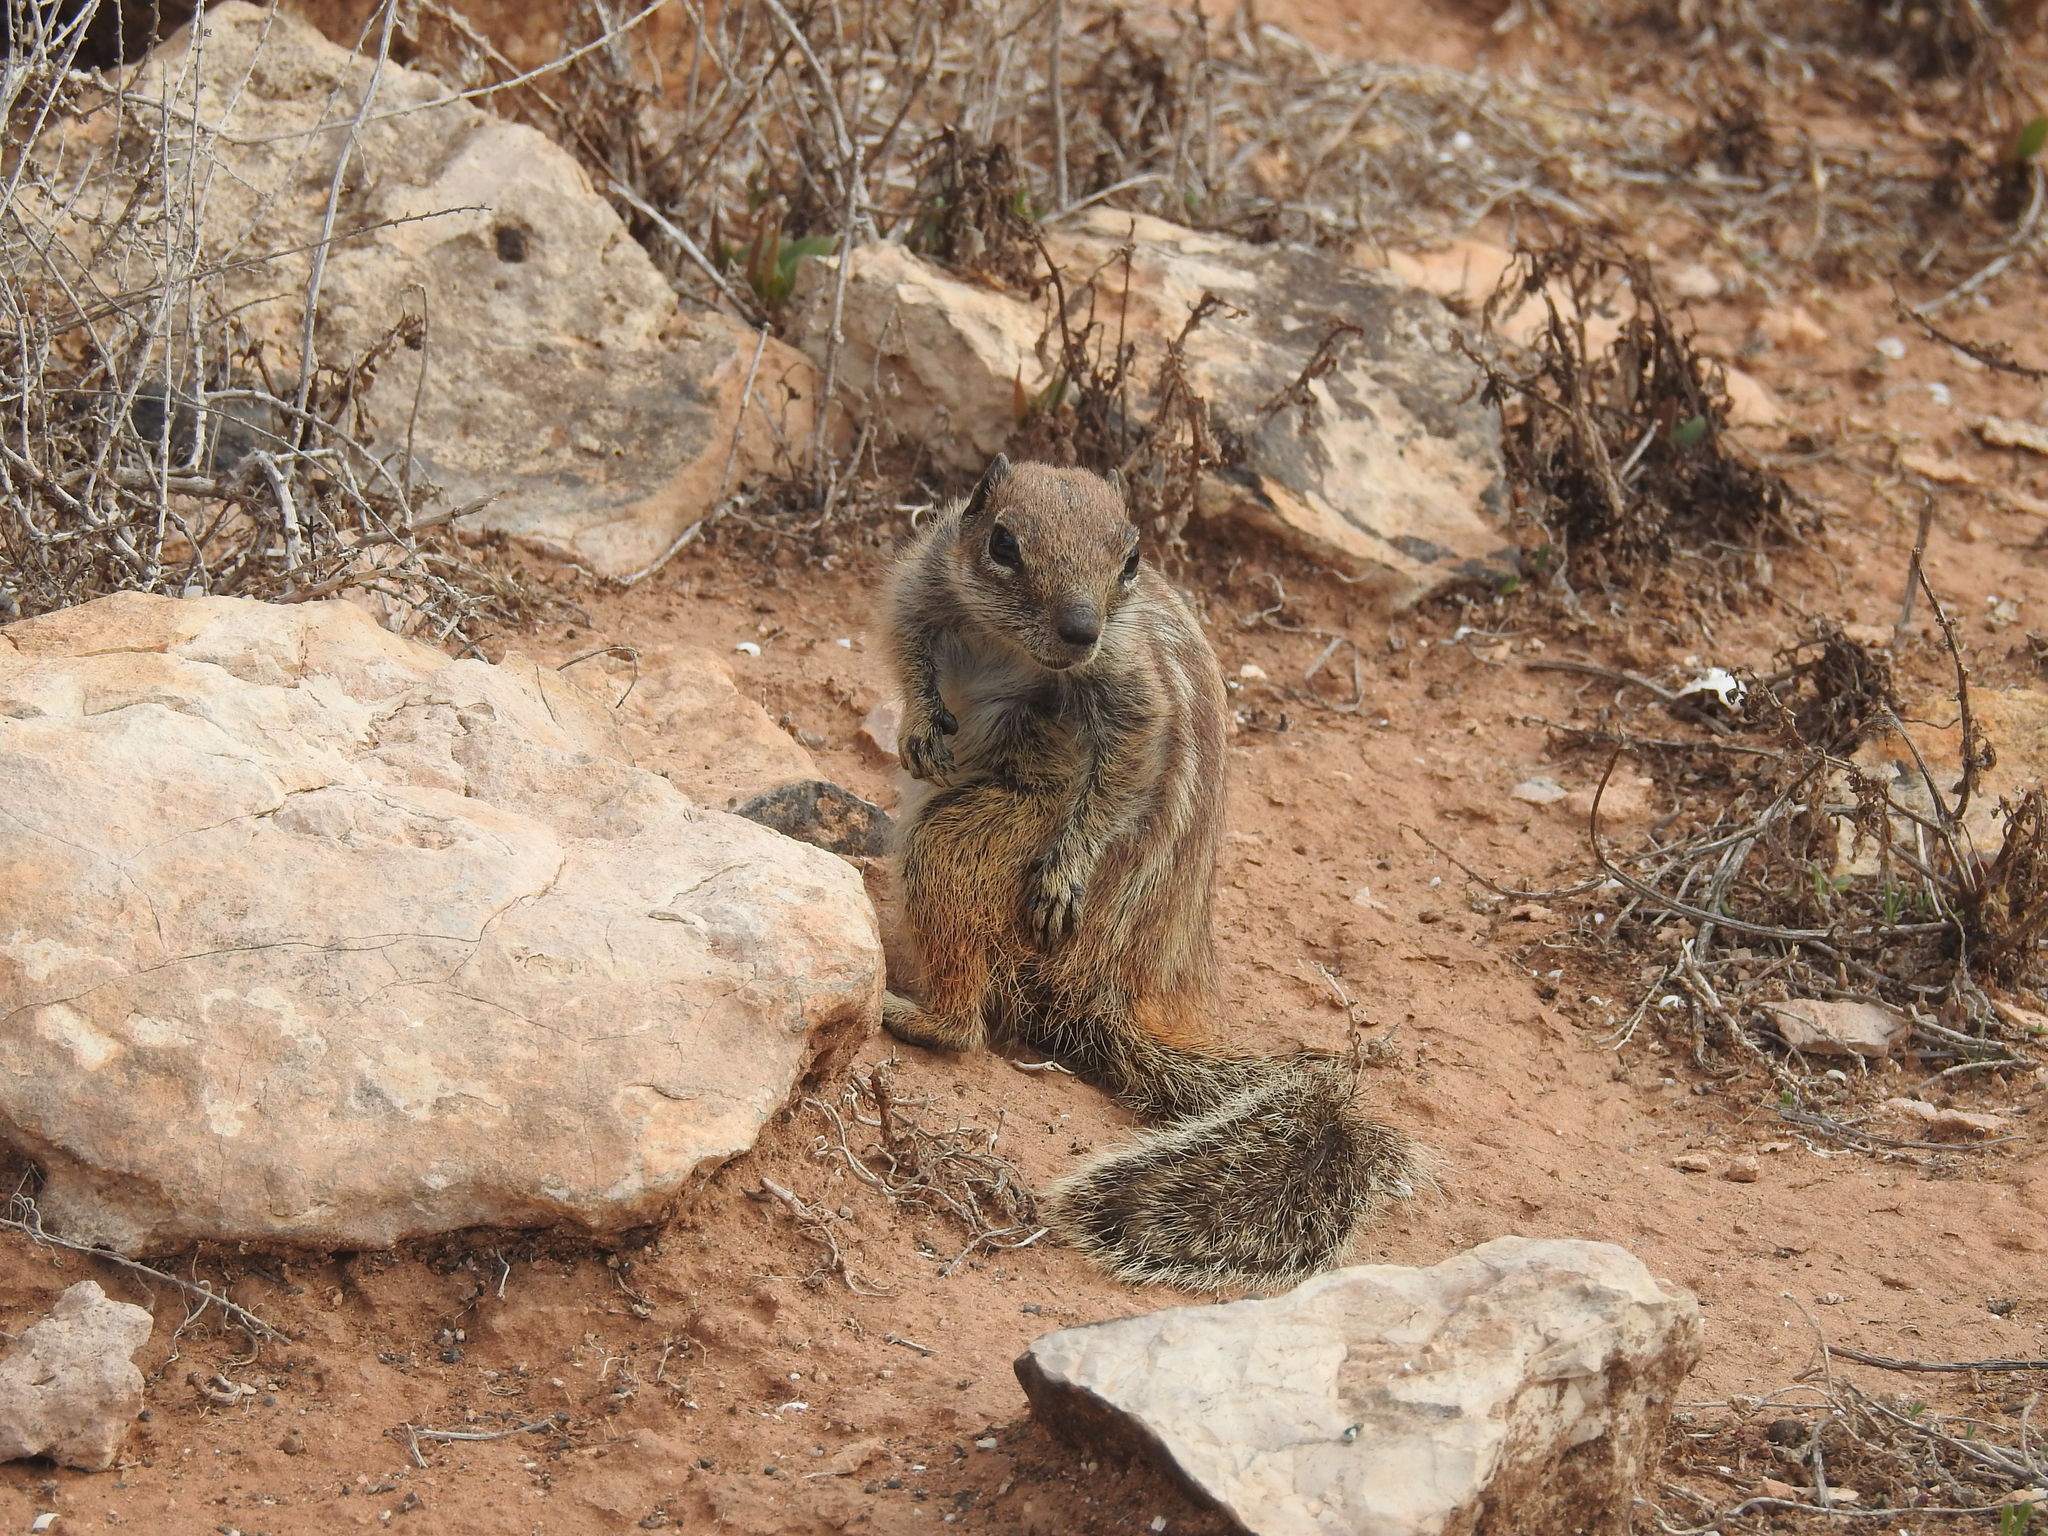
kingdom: Animalia
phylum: Chordata
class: Mammalia
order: Rodentia
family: Sciuridae
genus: Atlantoxerus
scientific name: Atlantoxerus getulus
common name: Barbary ground squirrel
